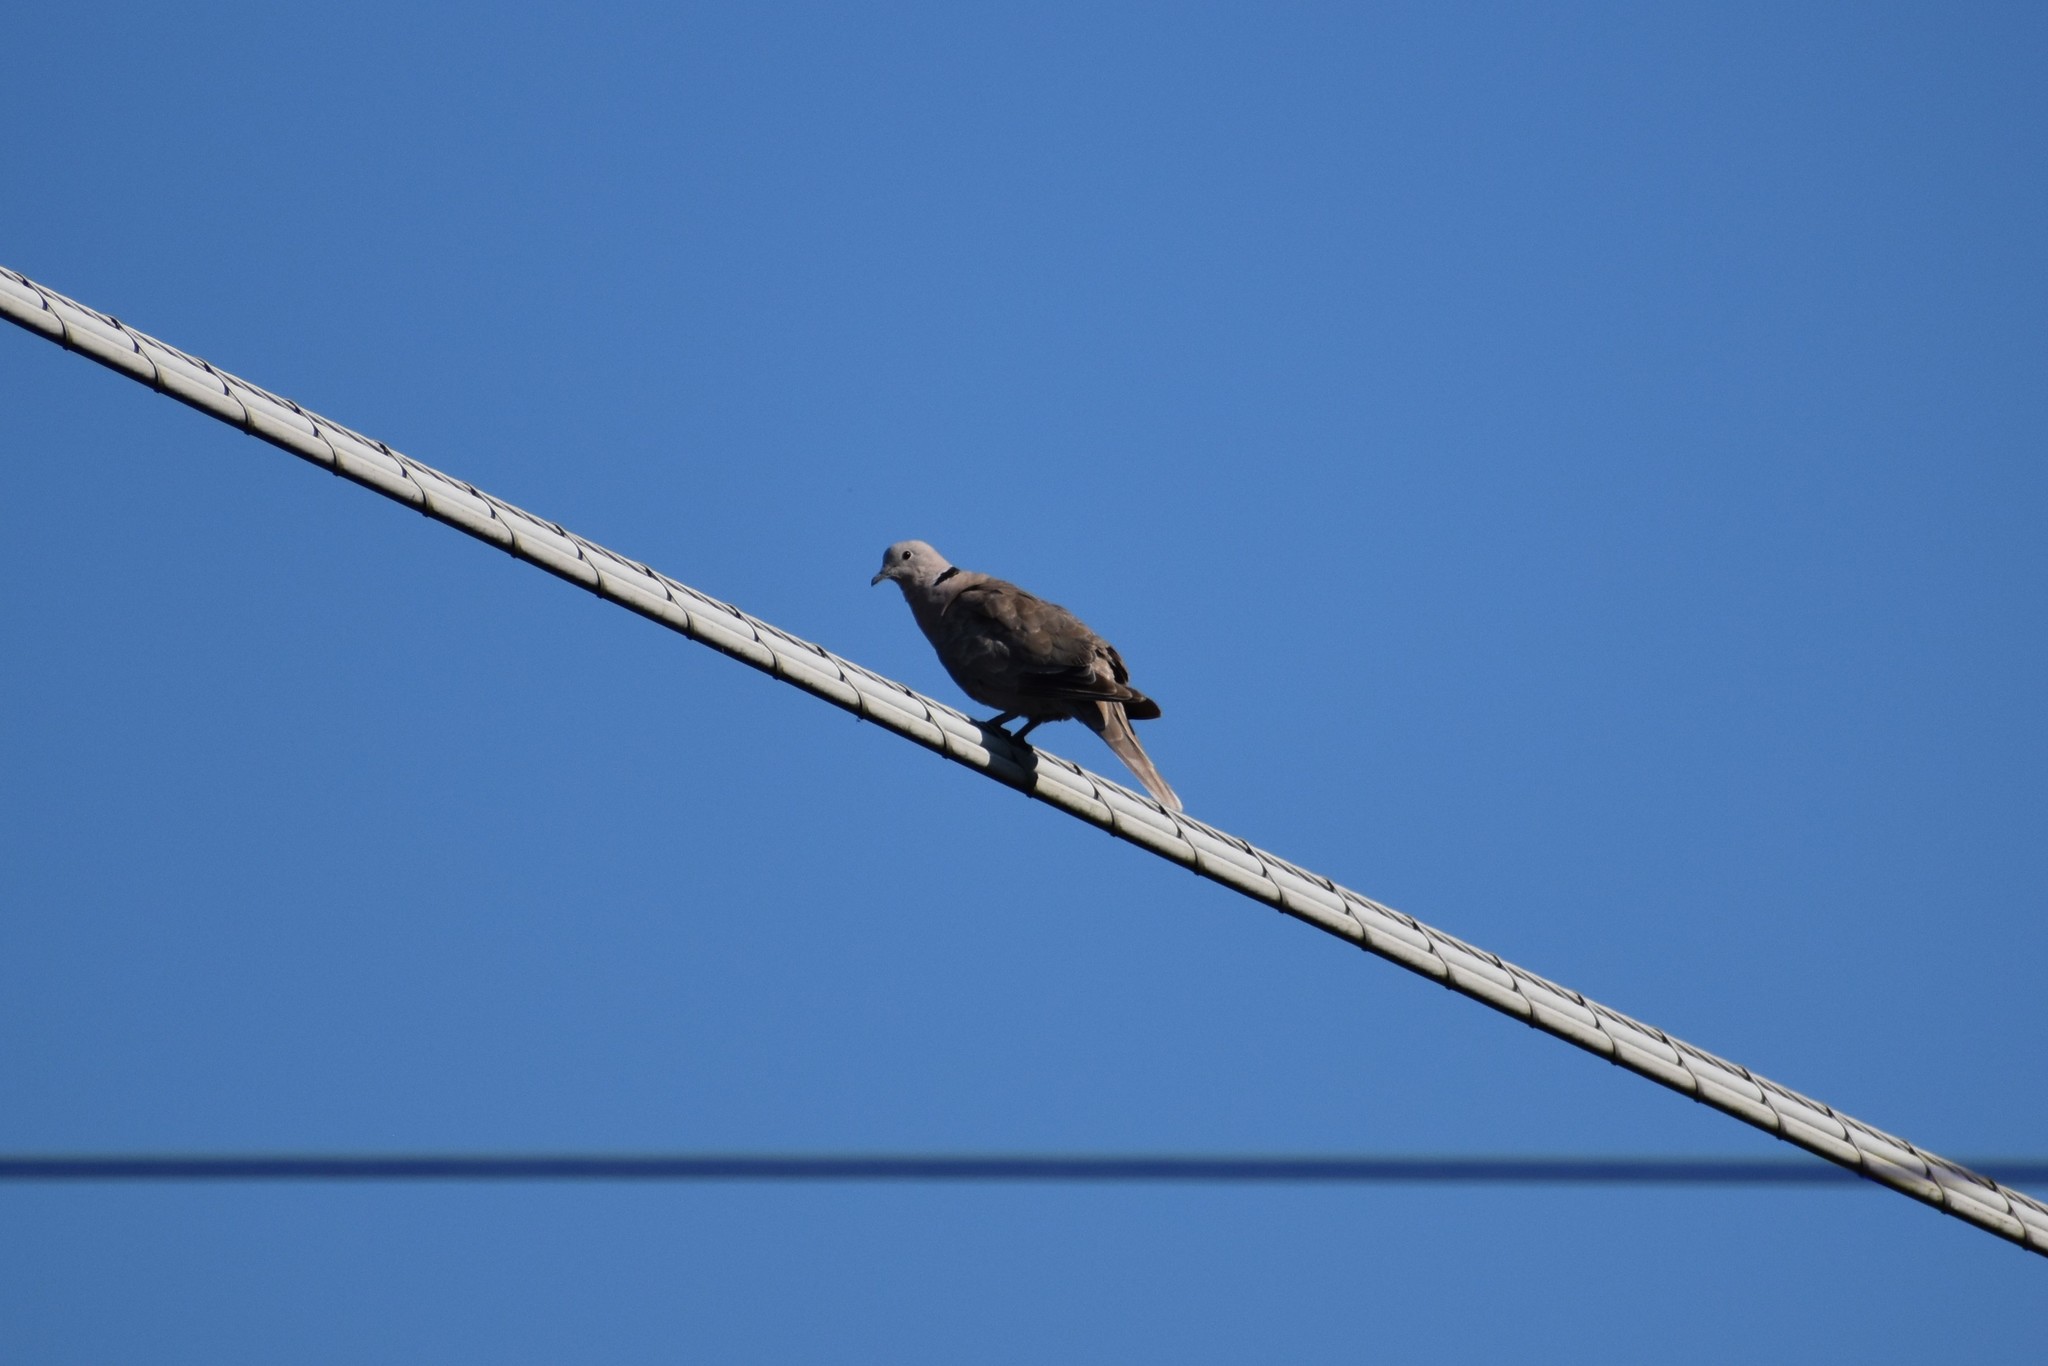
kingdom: Animalia
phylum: Chordata
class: Aves
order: Columbiformes
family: Columbidae
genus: Streptopelia
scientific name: Streptopelia decaocto
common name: Eurasian collared dove
